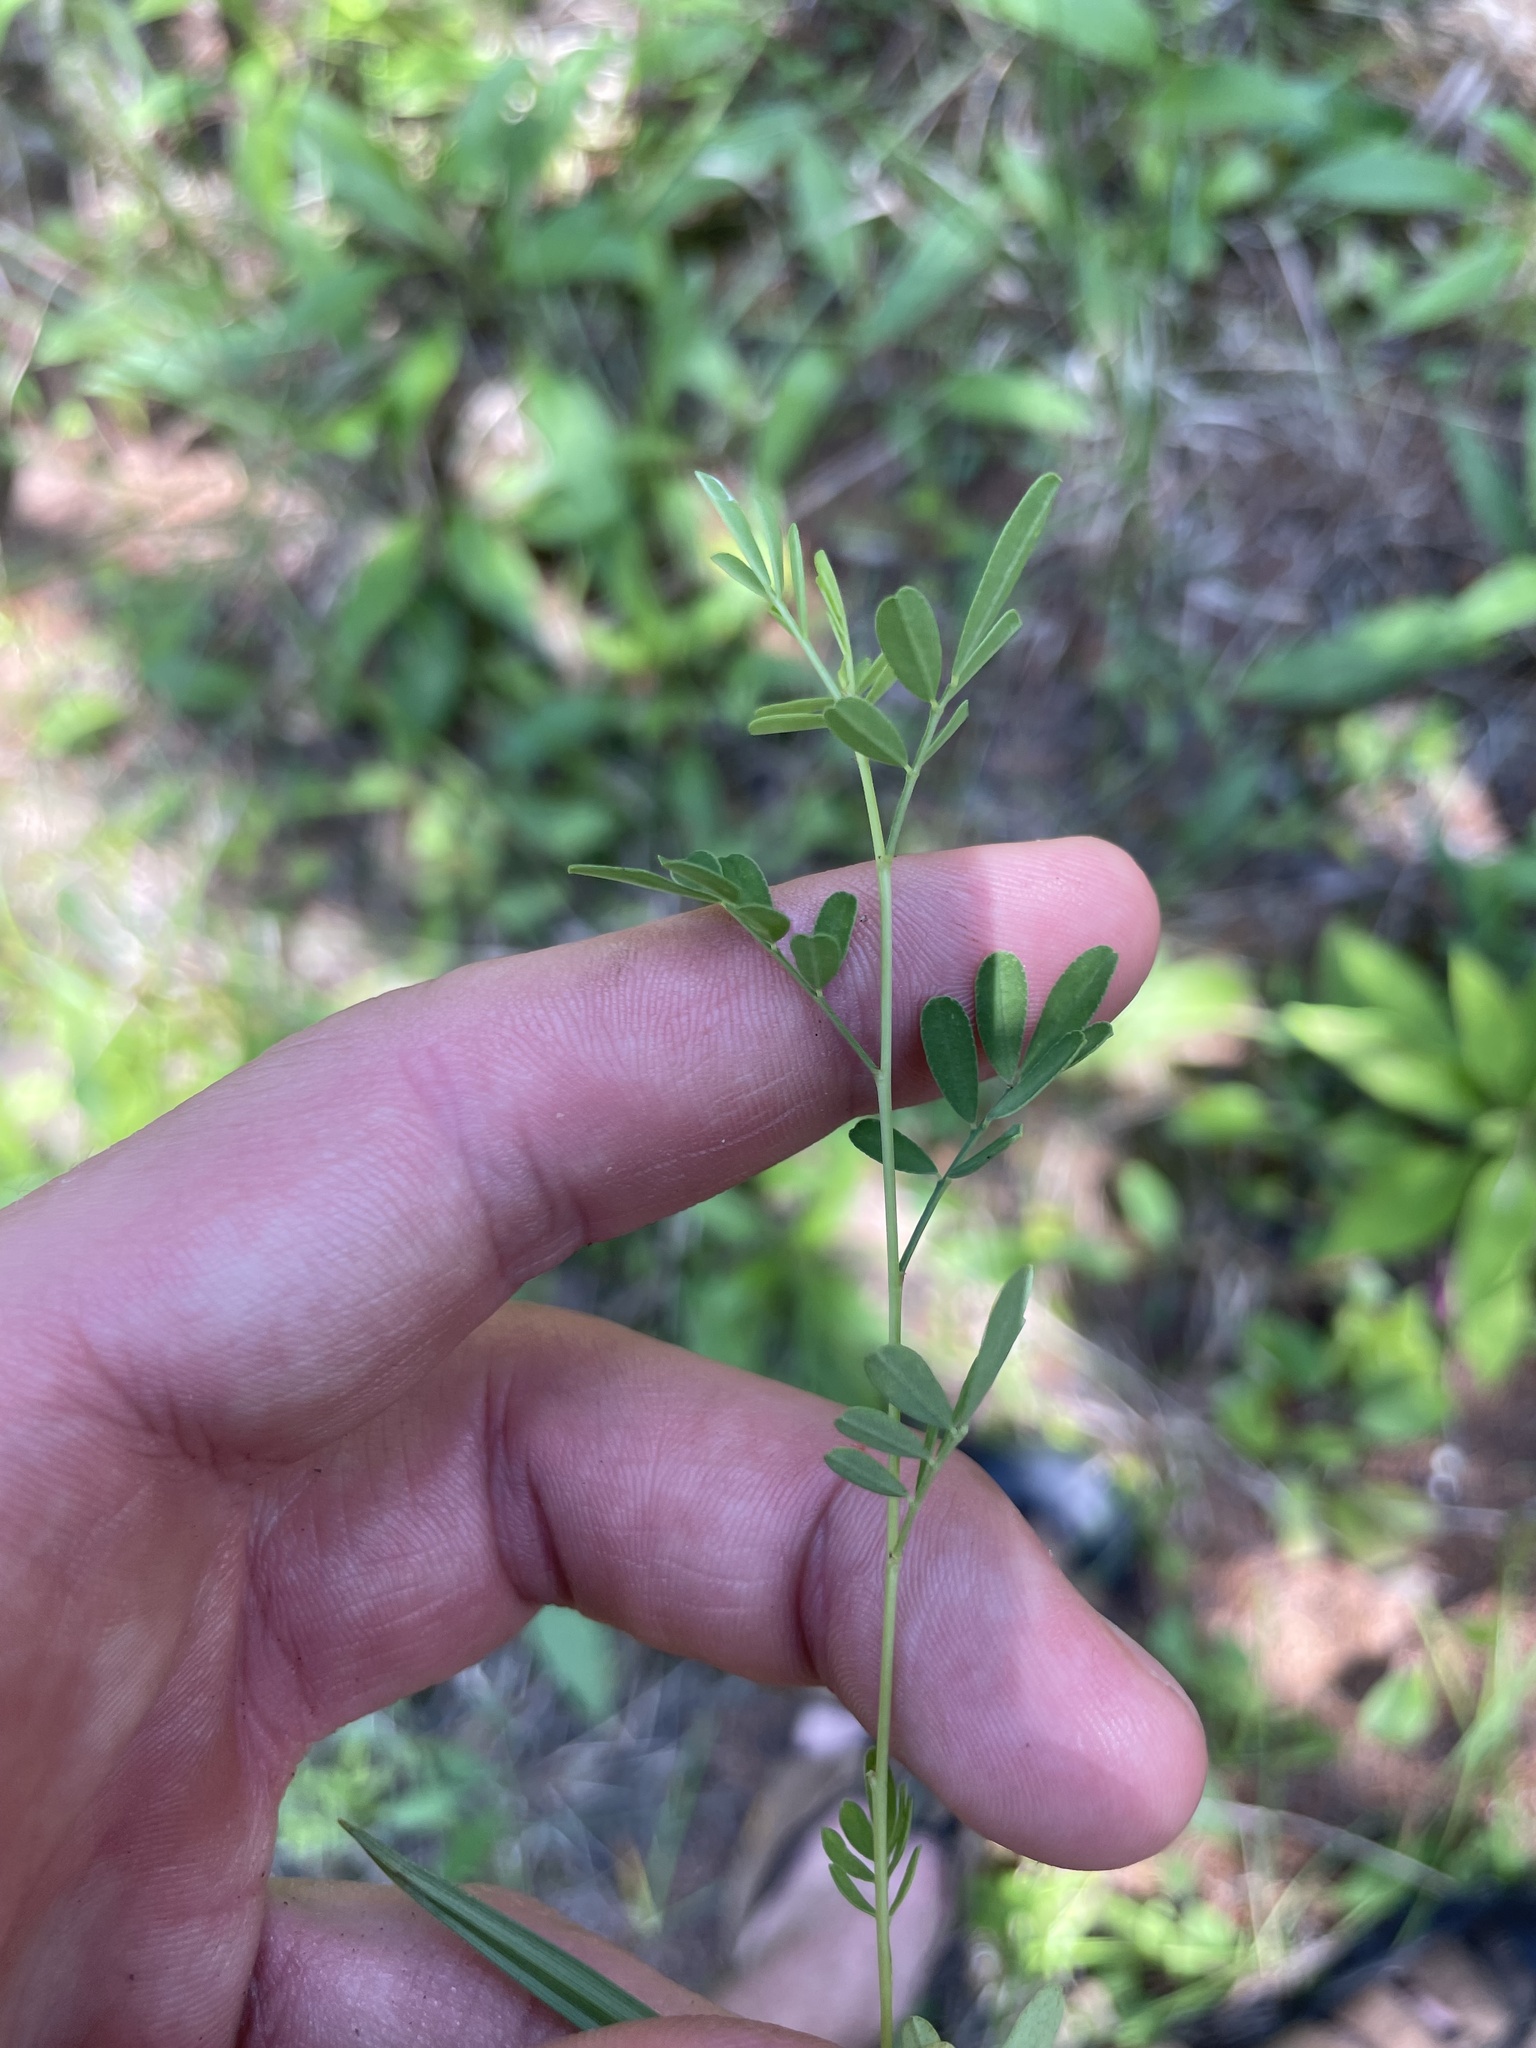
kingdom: Plantae
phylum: Tracheophyta
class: Magnoliopsida
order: Fabales
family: Fabaceae
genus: Dalea
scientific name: Dalea candida
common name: White prairie-clover
